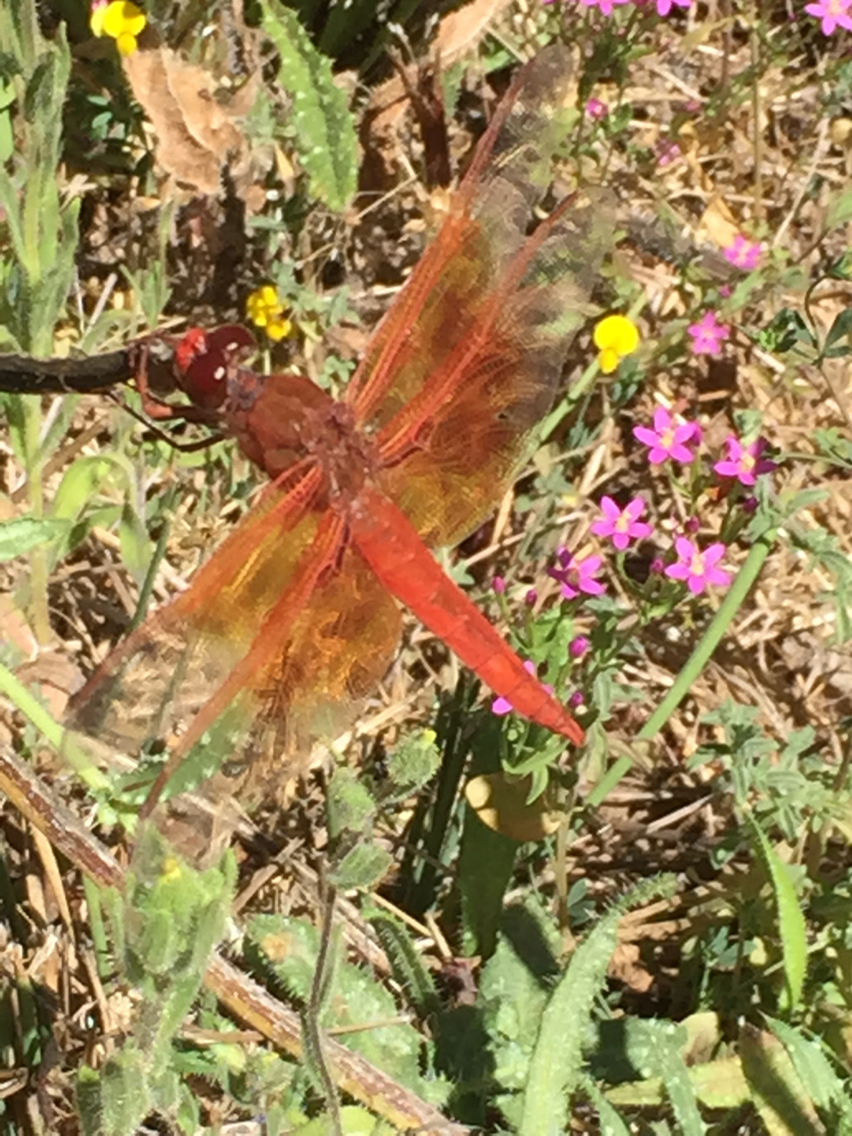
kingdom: Animalia
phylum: Arthropoda
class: Insecta
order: Odonata
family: Libellulidae
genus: Libellula
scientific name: Libellula saturata
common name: Flame skimmer
